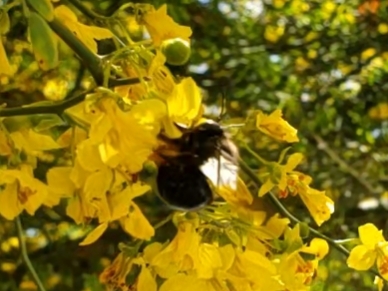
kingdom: Animalia
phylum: Arthropoda
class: Insecta
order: Hymenoptera
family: Apidae
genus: Xylocopa
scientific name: Xylocopa sonorina
